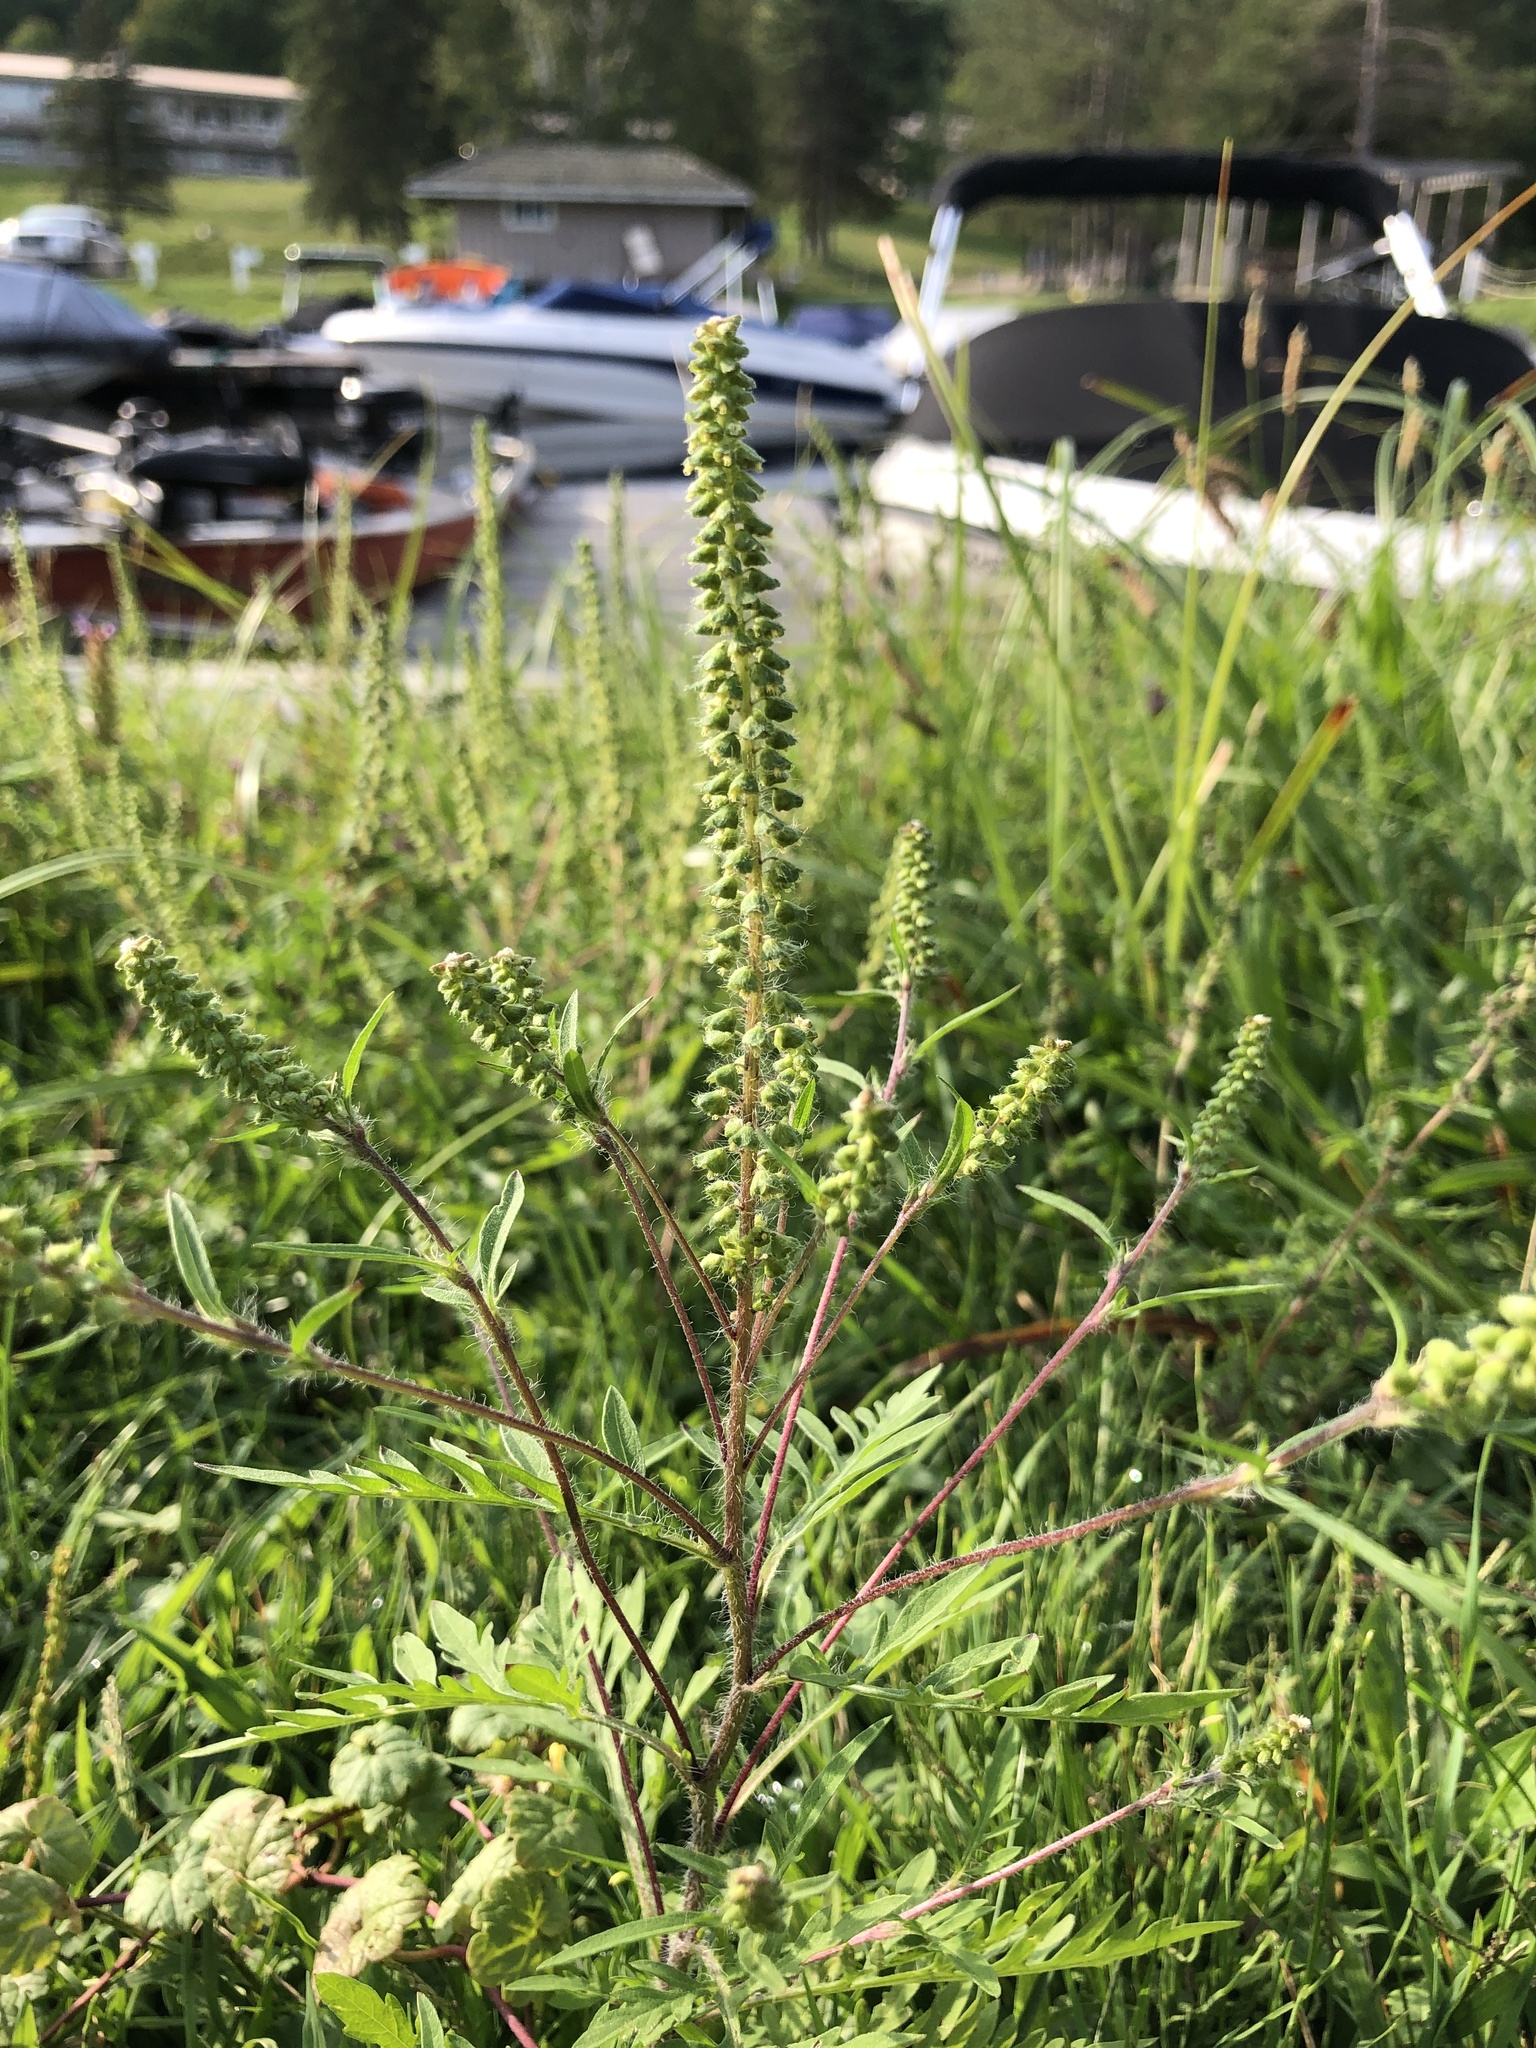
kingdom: Plantae
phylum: Tracheophyta
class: Magnoliopsida
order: Asterales
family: Asteraceae
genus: Ambrosia
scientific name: Ambrosia artemisiifolia
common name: Annual ragweed
